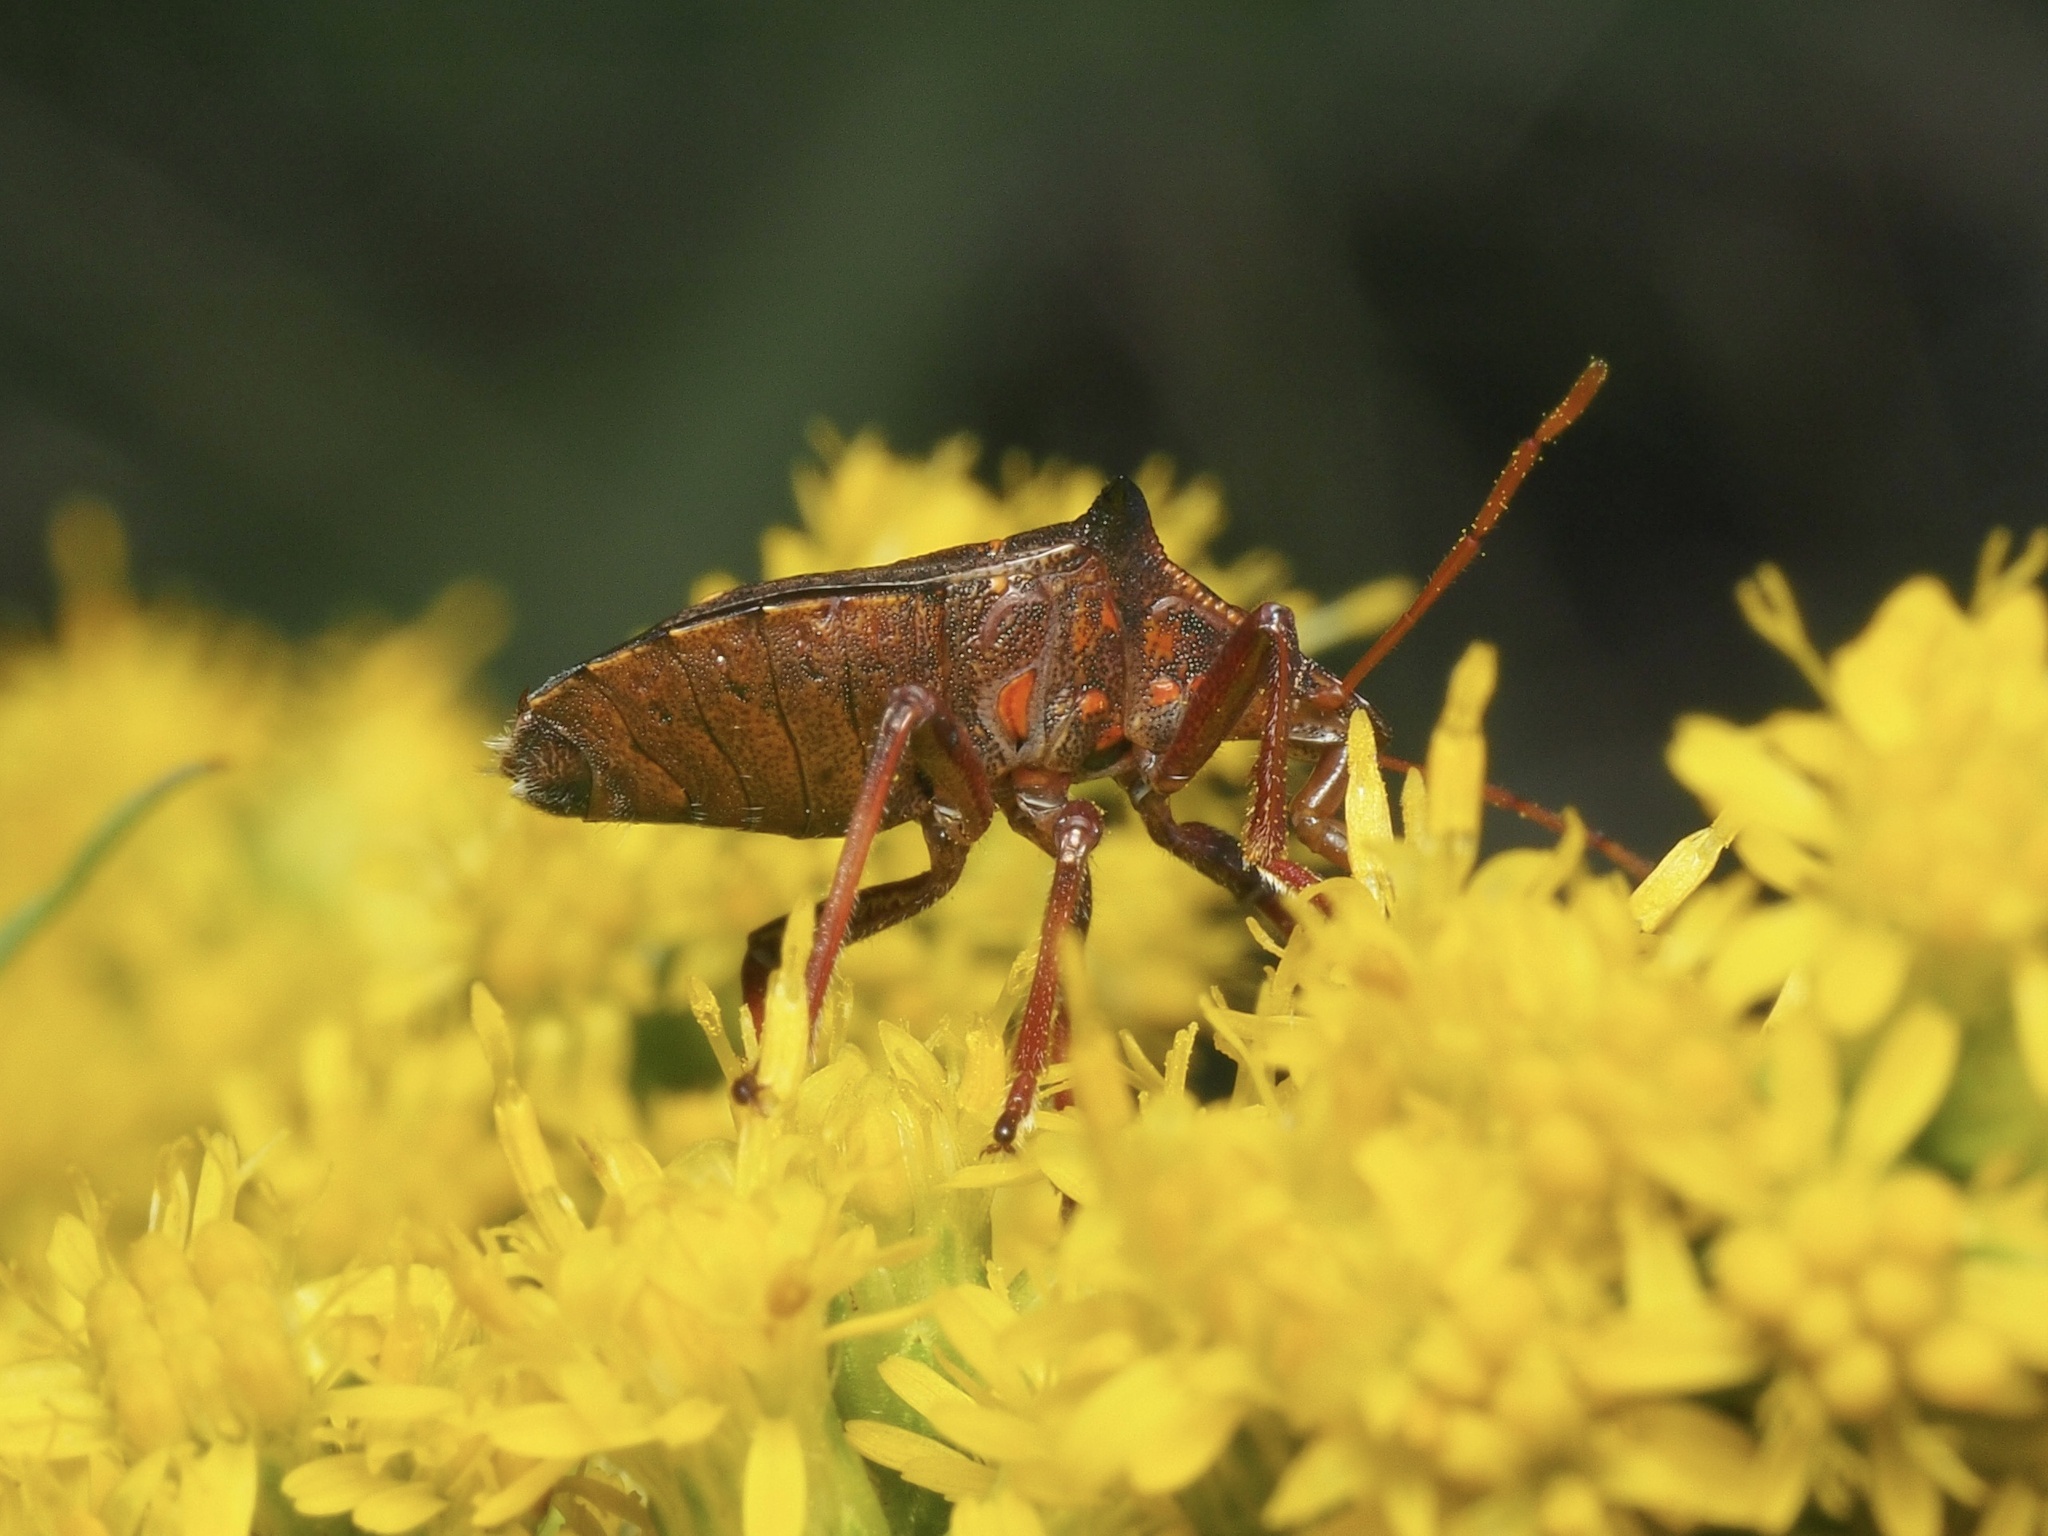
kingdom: Animalia
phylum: Arthropoda
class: Insecta
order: Hemiptera
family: Pentatomidae
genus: Picromerus
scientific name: Picromerus bidens
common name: Spiked shieldbug
